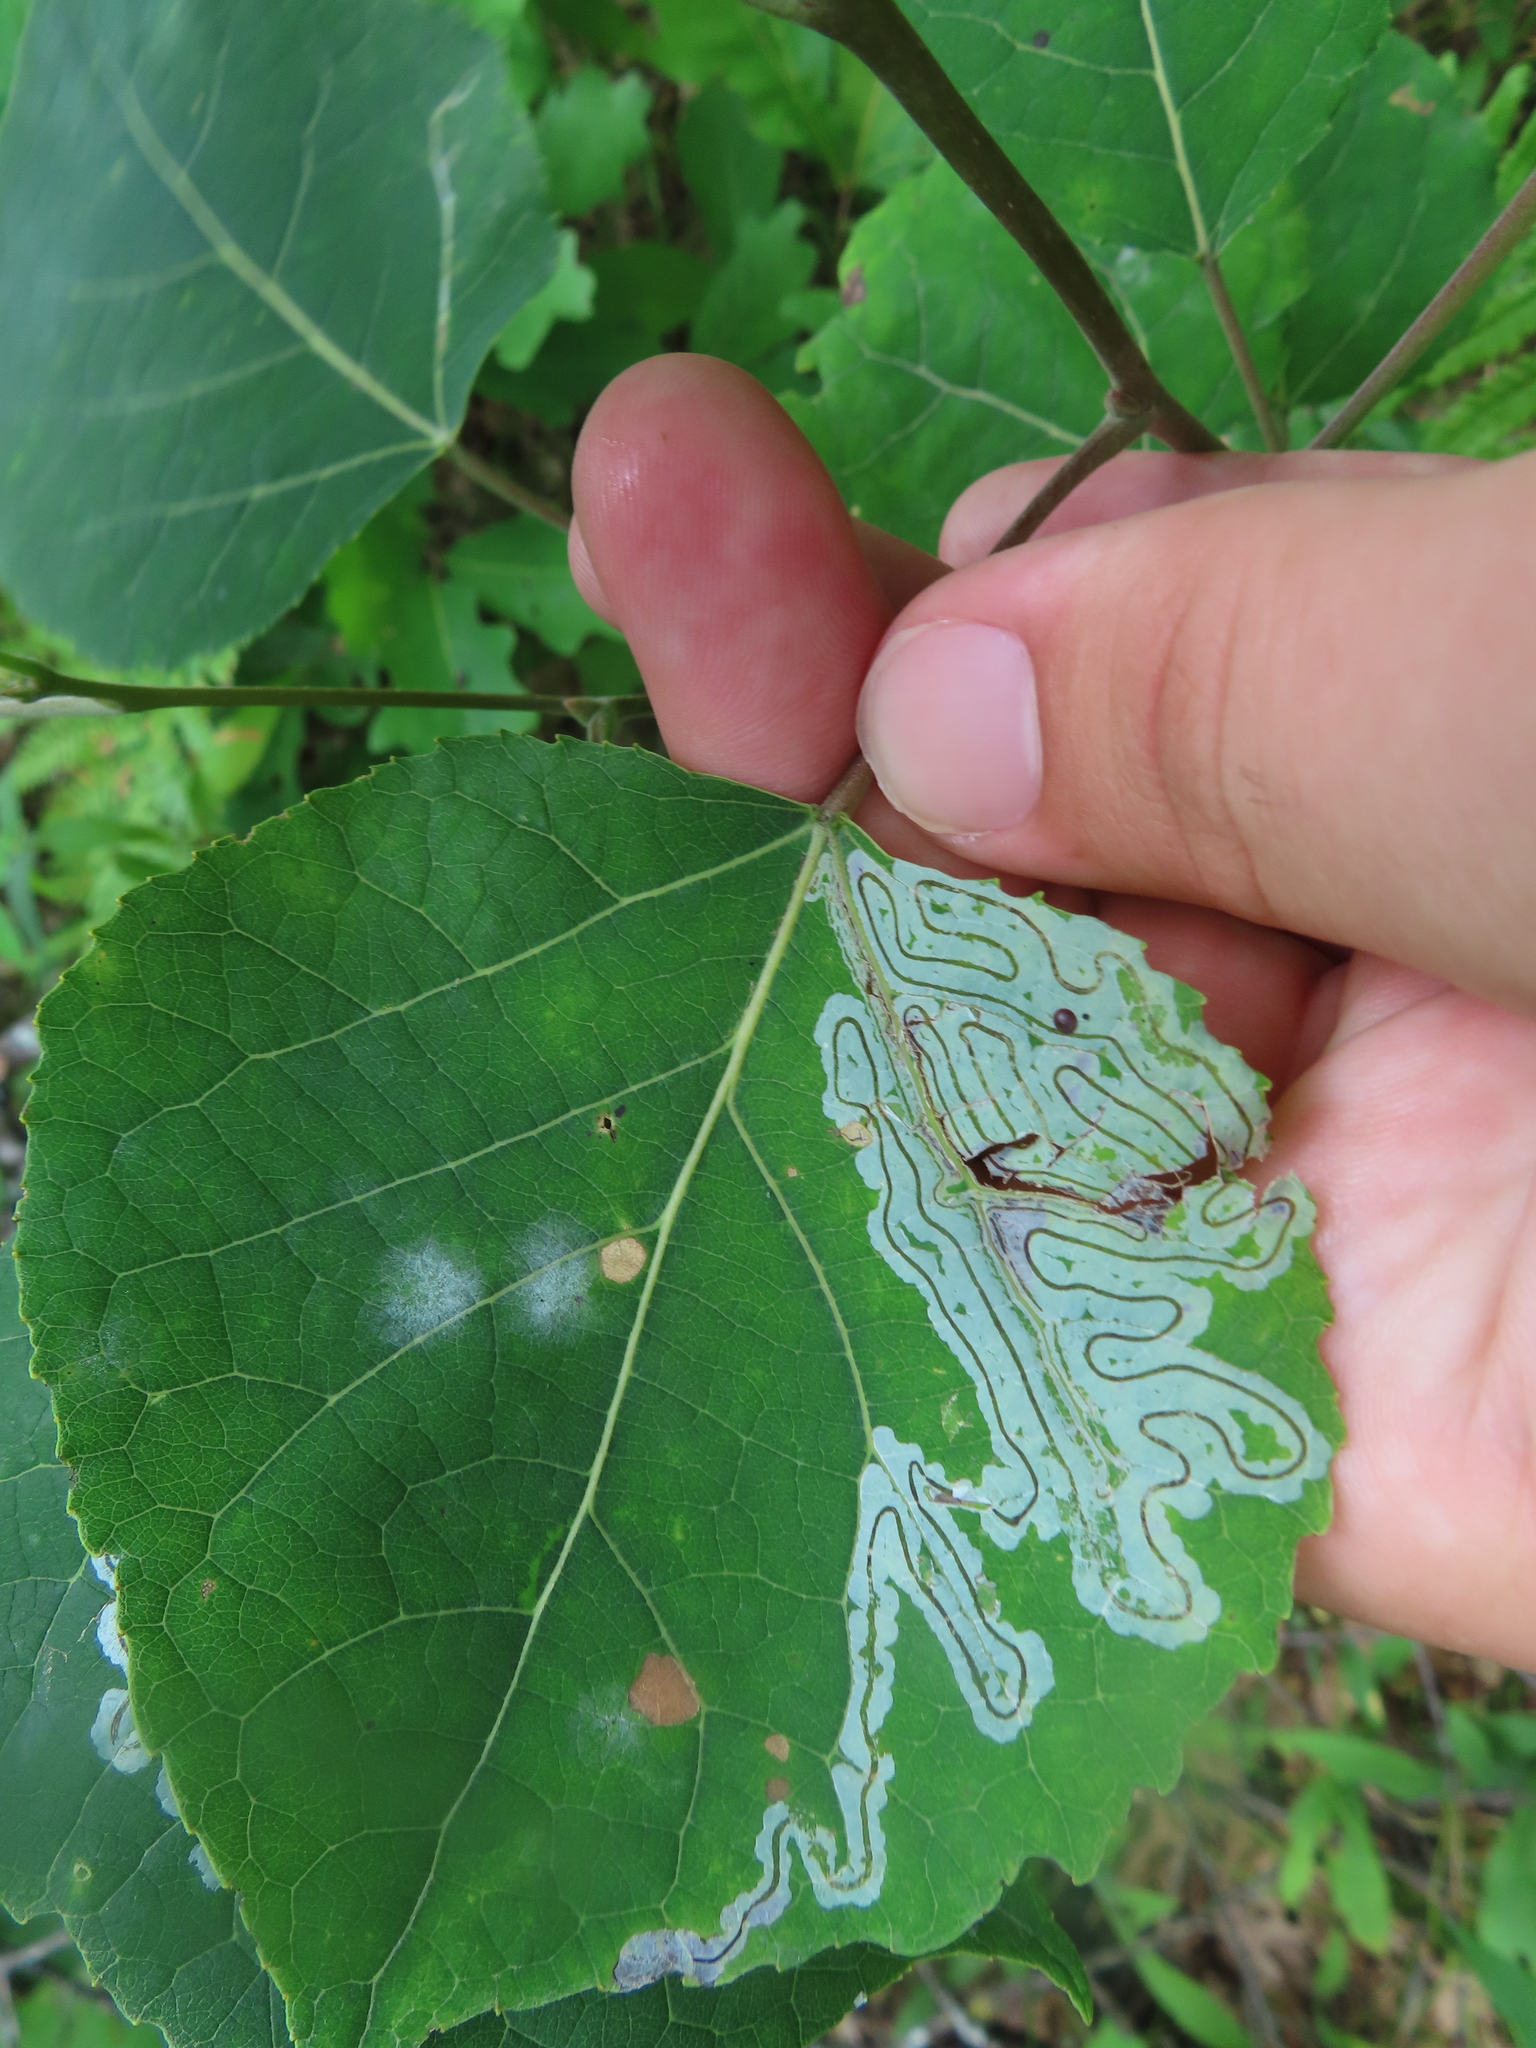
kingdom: Animalia
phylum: Arthropoda
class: Insecta
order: Lepidoptera
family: Gracillariidae
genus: Phyllocnistis
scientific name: Phyllocnistis populiella
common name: Aspen serpentine leafminer moth
